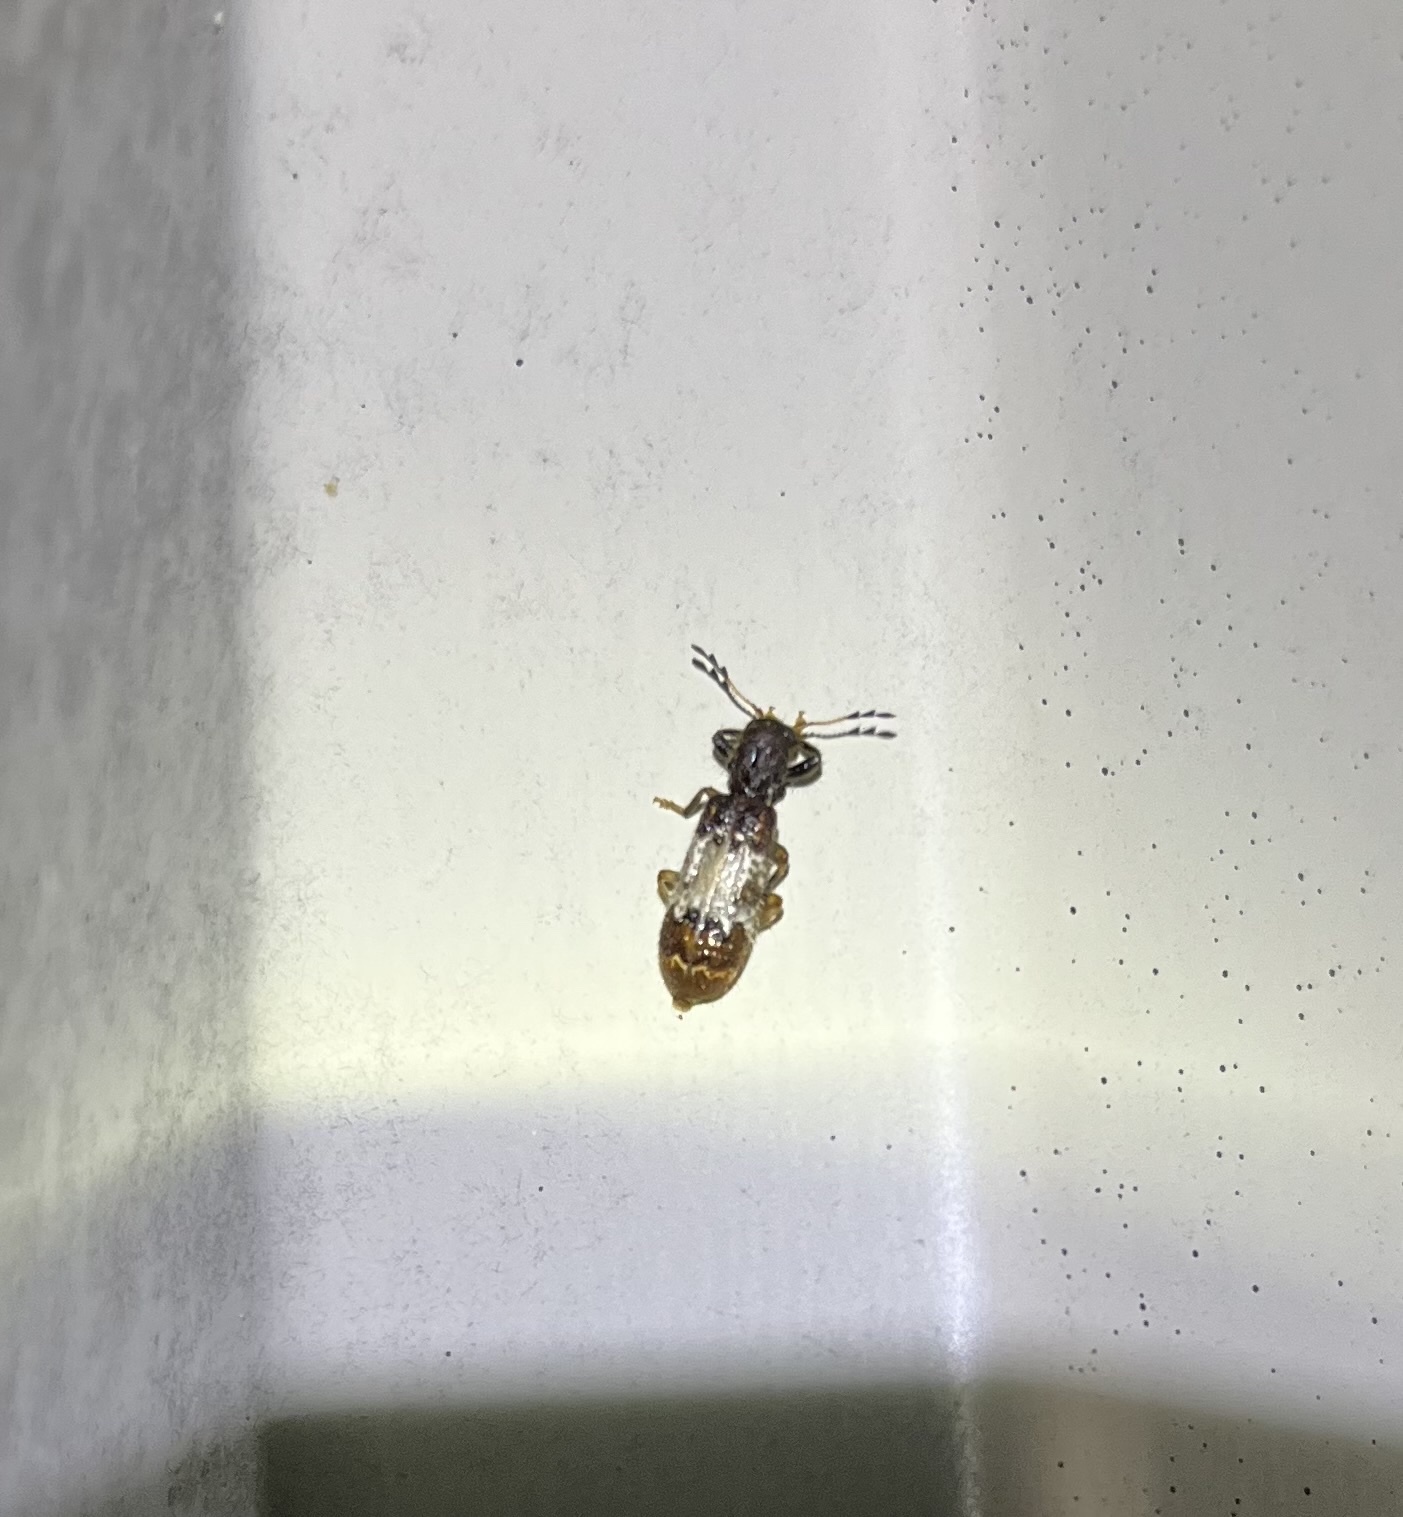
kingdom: Animalia
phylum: Arthropoda
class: Insecta
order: Coleoptera
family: Cleridae
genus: Pelonium
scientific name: Pelonium leucophaeum
